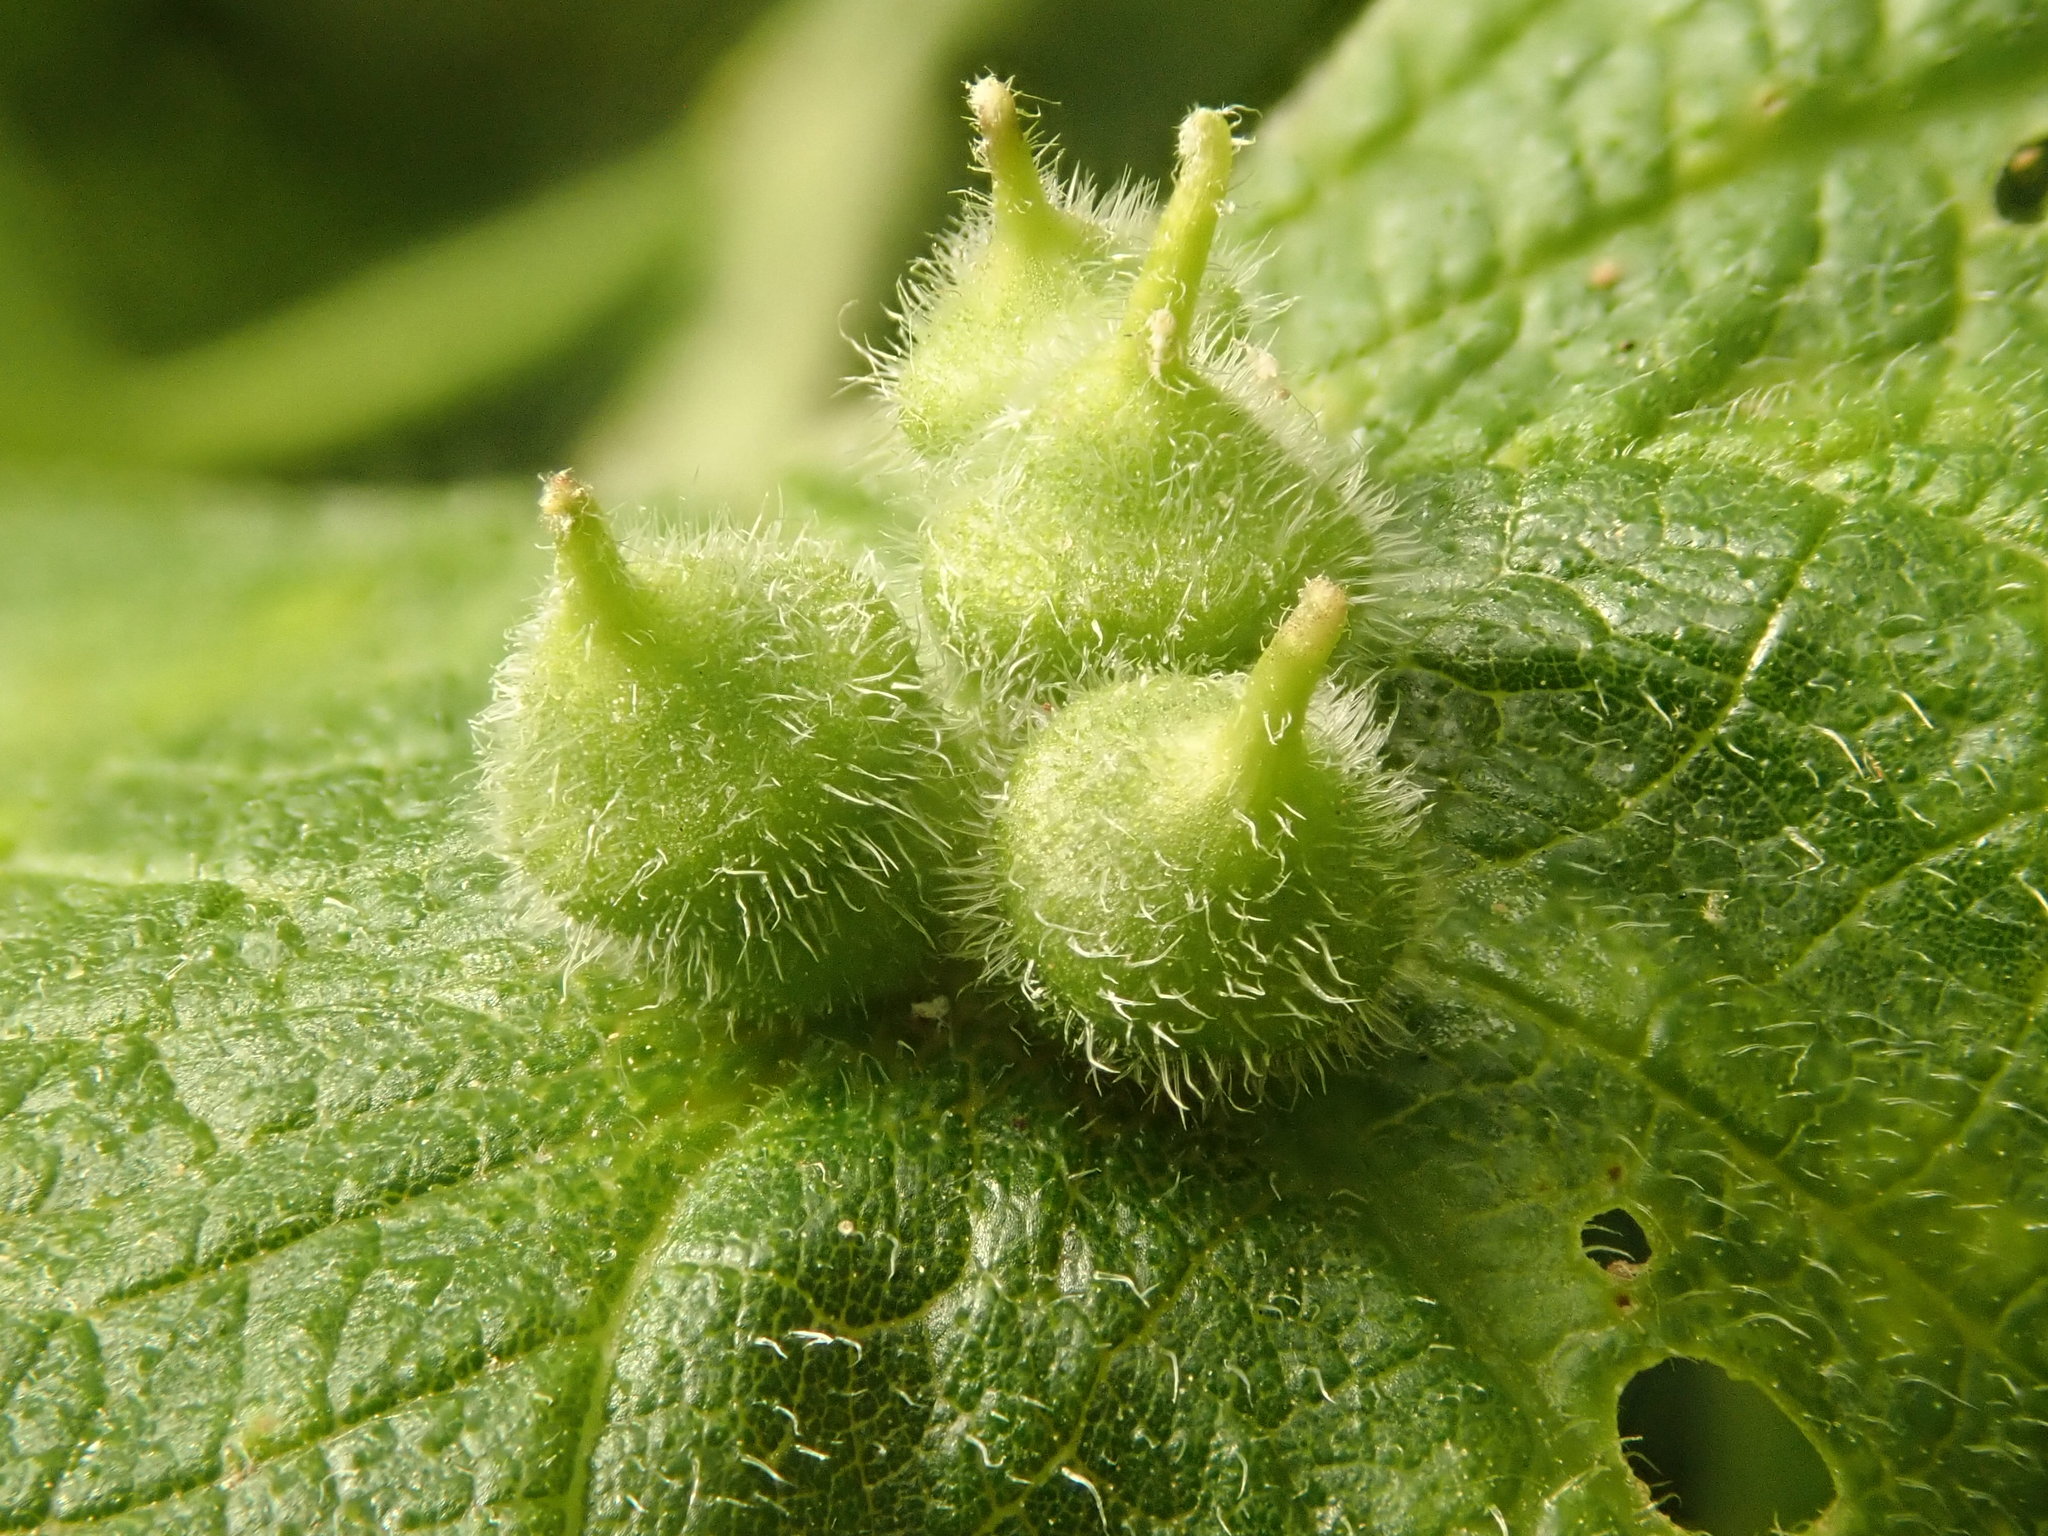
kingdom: Animalia
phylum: Arthropoda
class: Insecta
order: Diptera
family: Cecidomyiidae
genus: Celticecis
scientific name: Celticecis celtiphyllia
